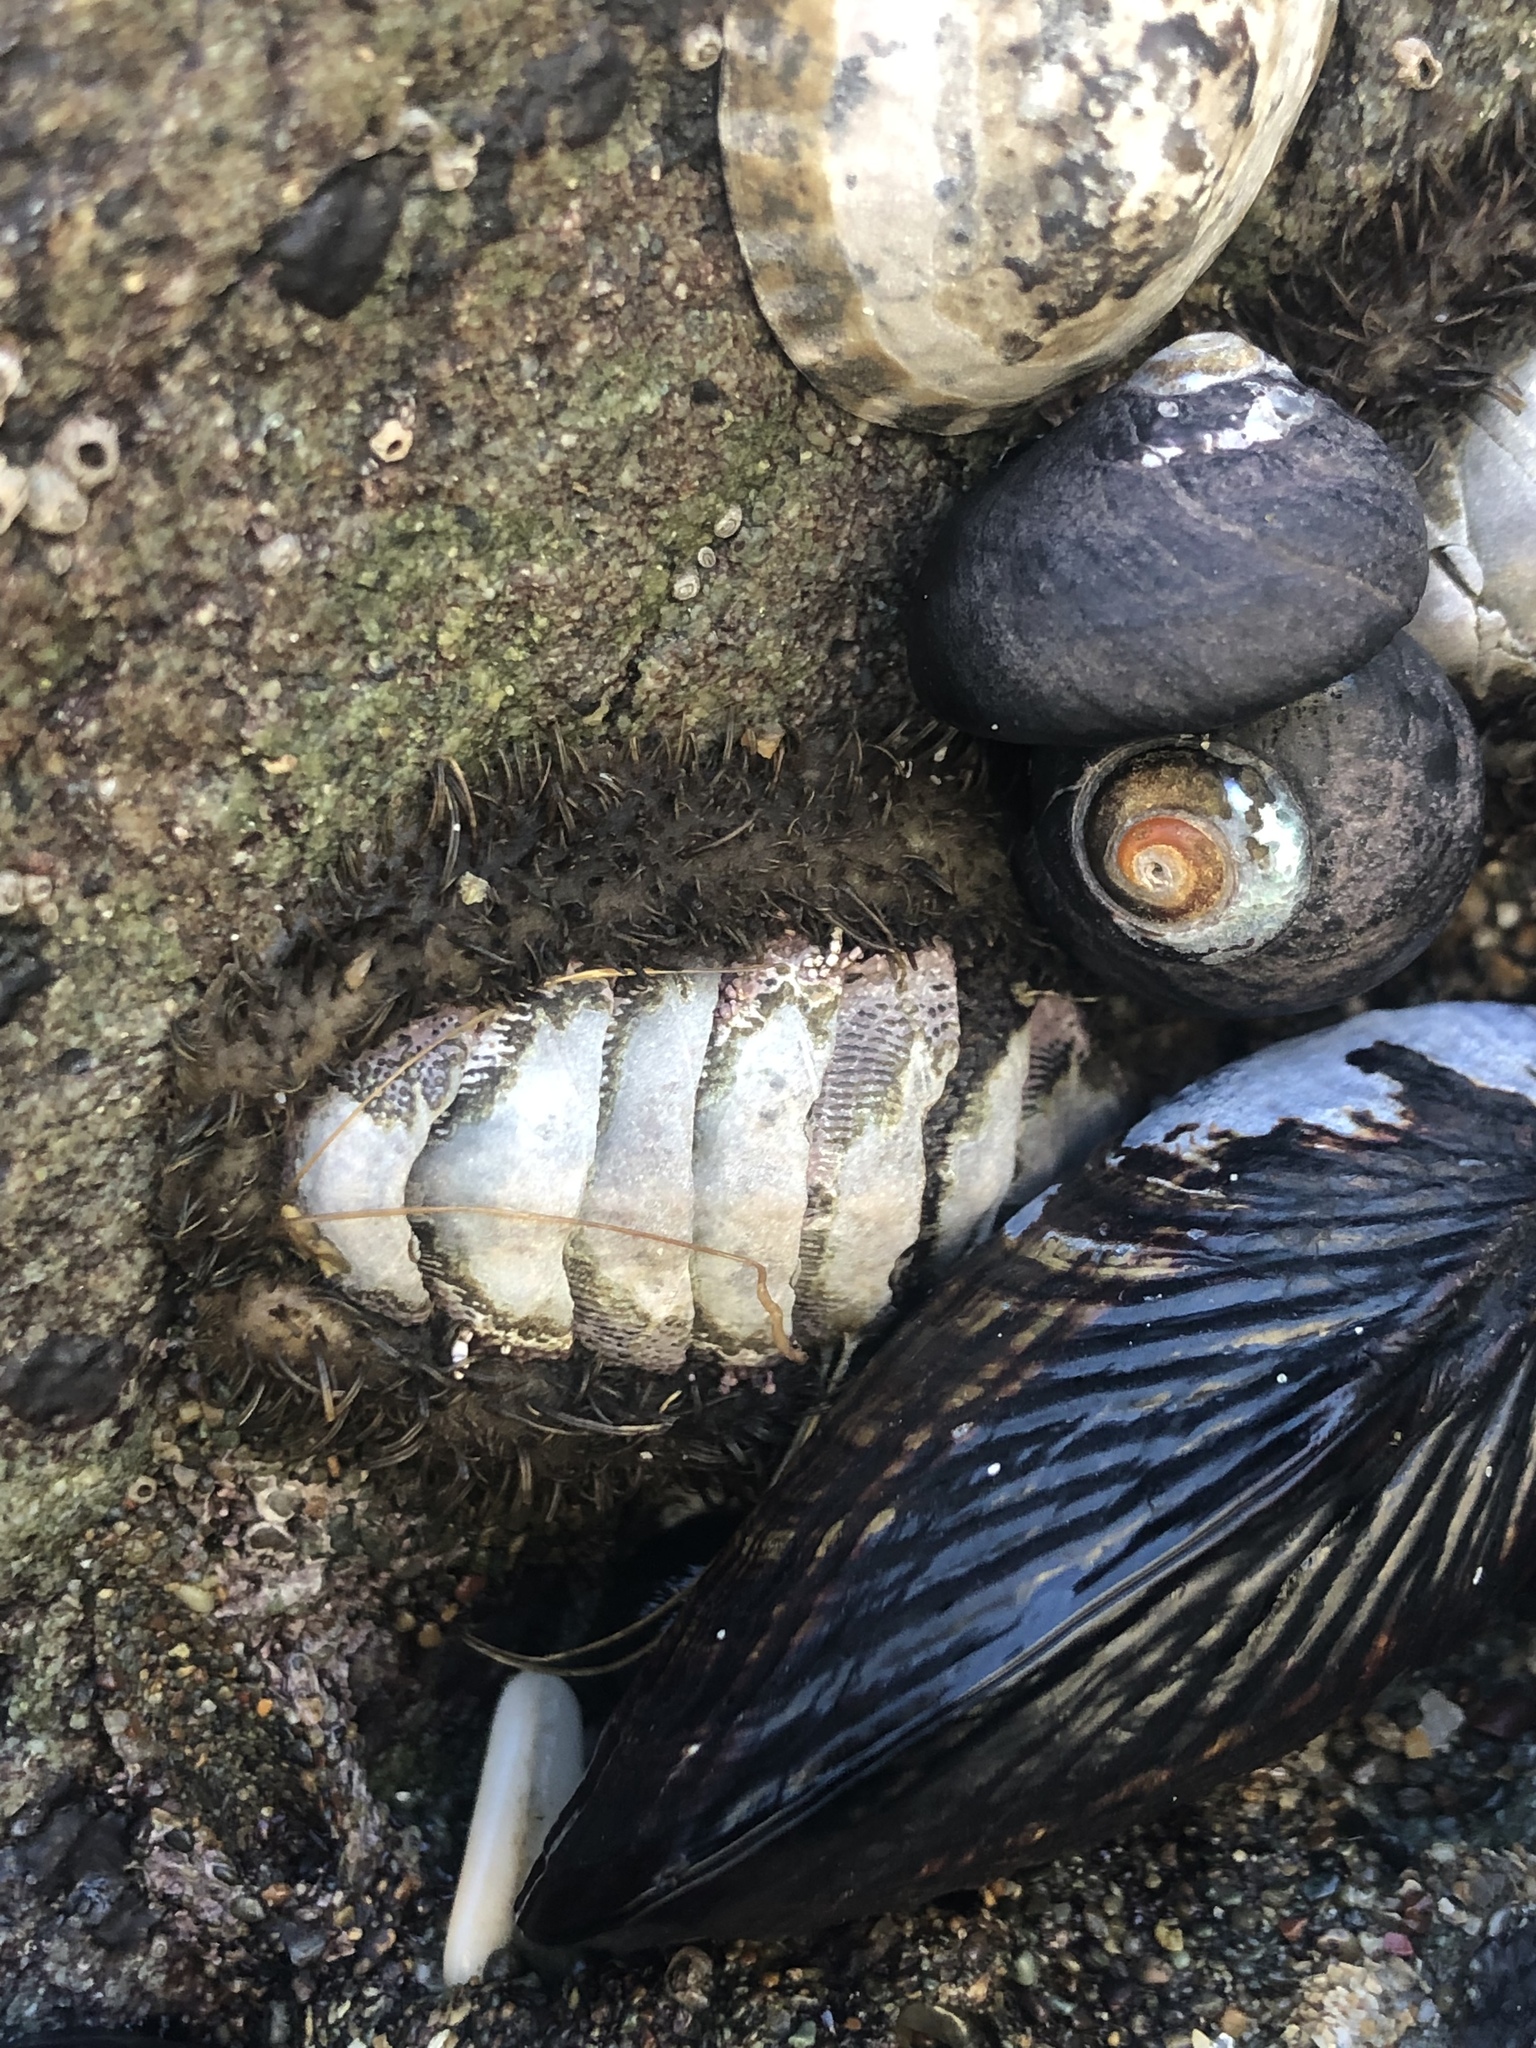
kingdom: Animalia
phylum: Mollusca
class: Polyplacophora
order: Chitonida
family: Mopaliidae
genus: Mopalia
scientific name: Mopalia muscosa
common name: Mossy chiton
